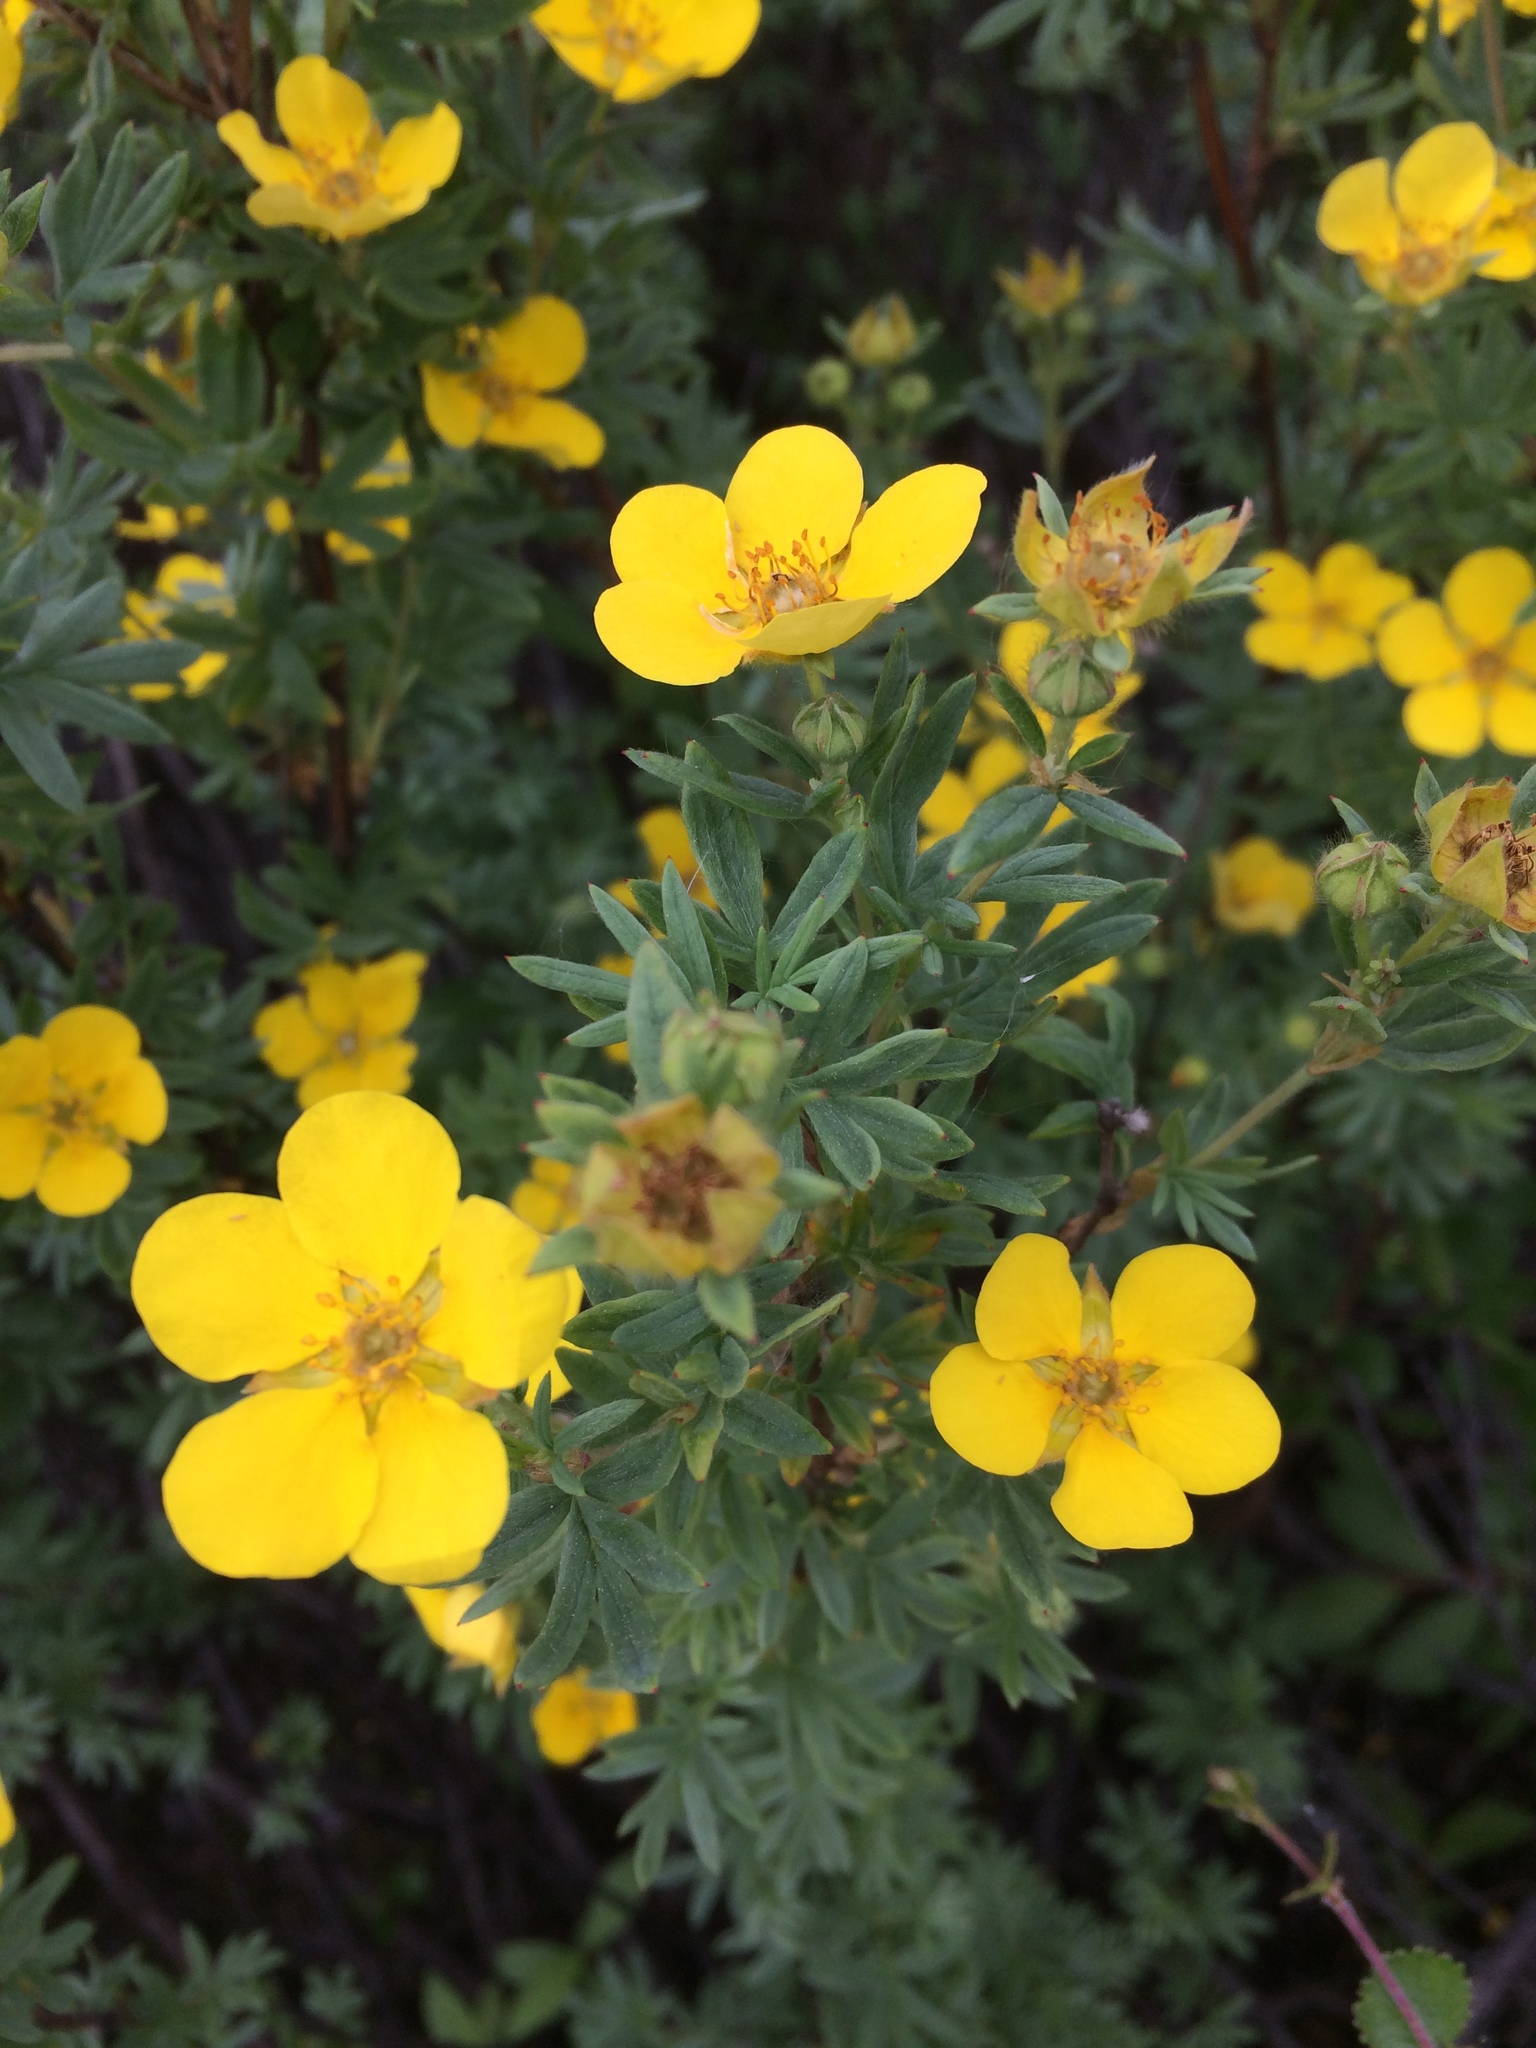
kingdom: Plantae
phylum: Tracheophyta
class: Magnoliopsida
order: Rosales
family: Rosaceae
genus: Dasiphora
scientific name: Dasiphora fruticosa
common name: Shrubby cinquefoil
